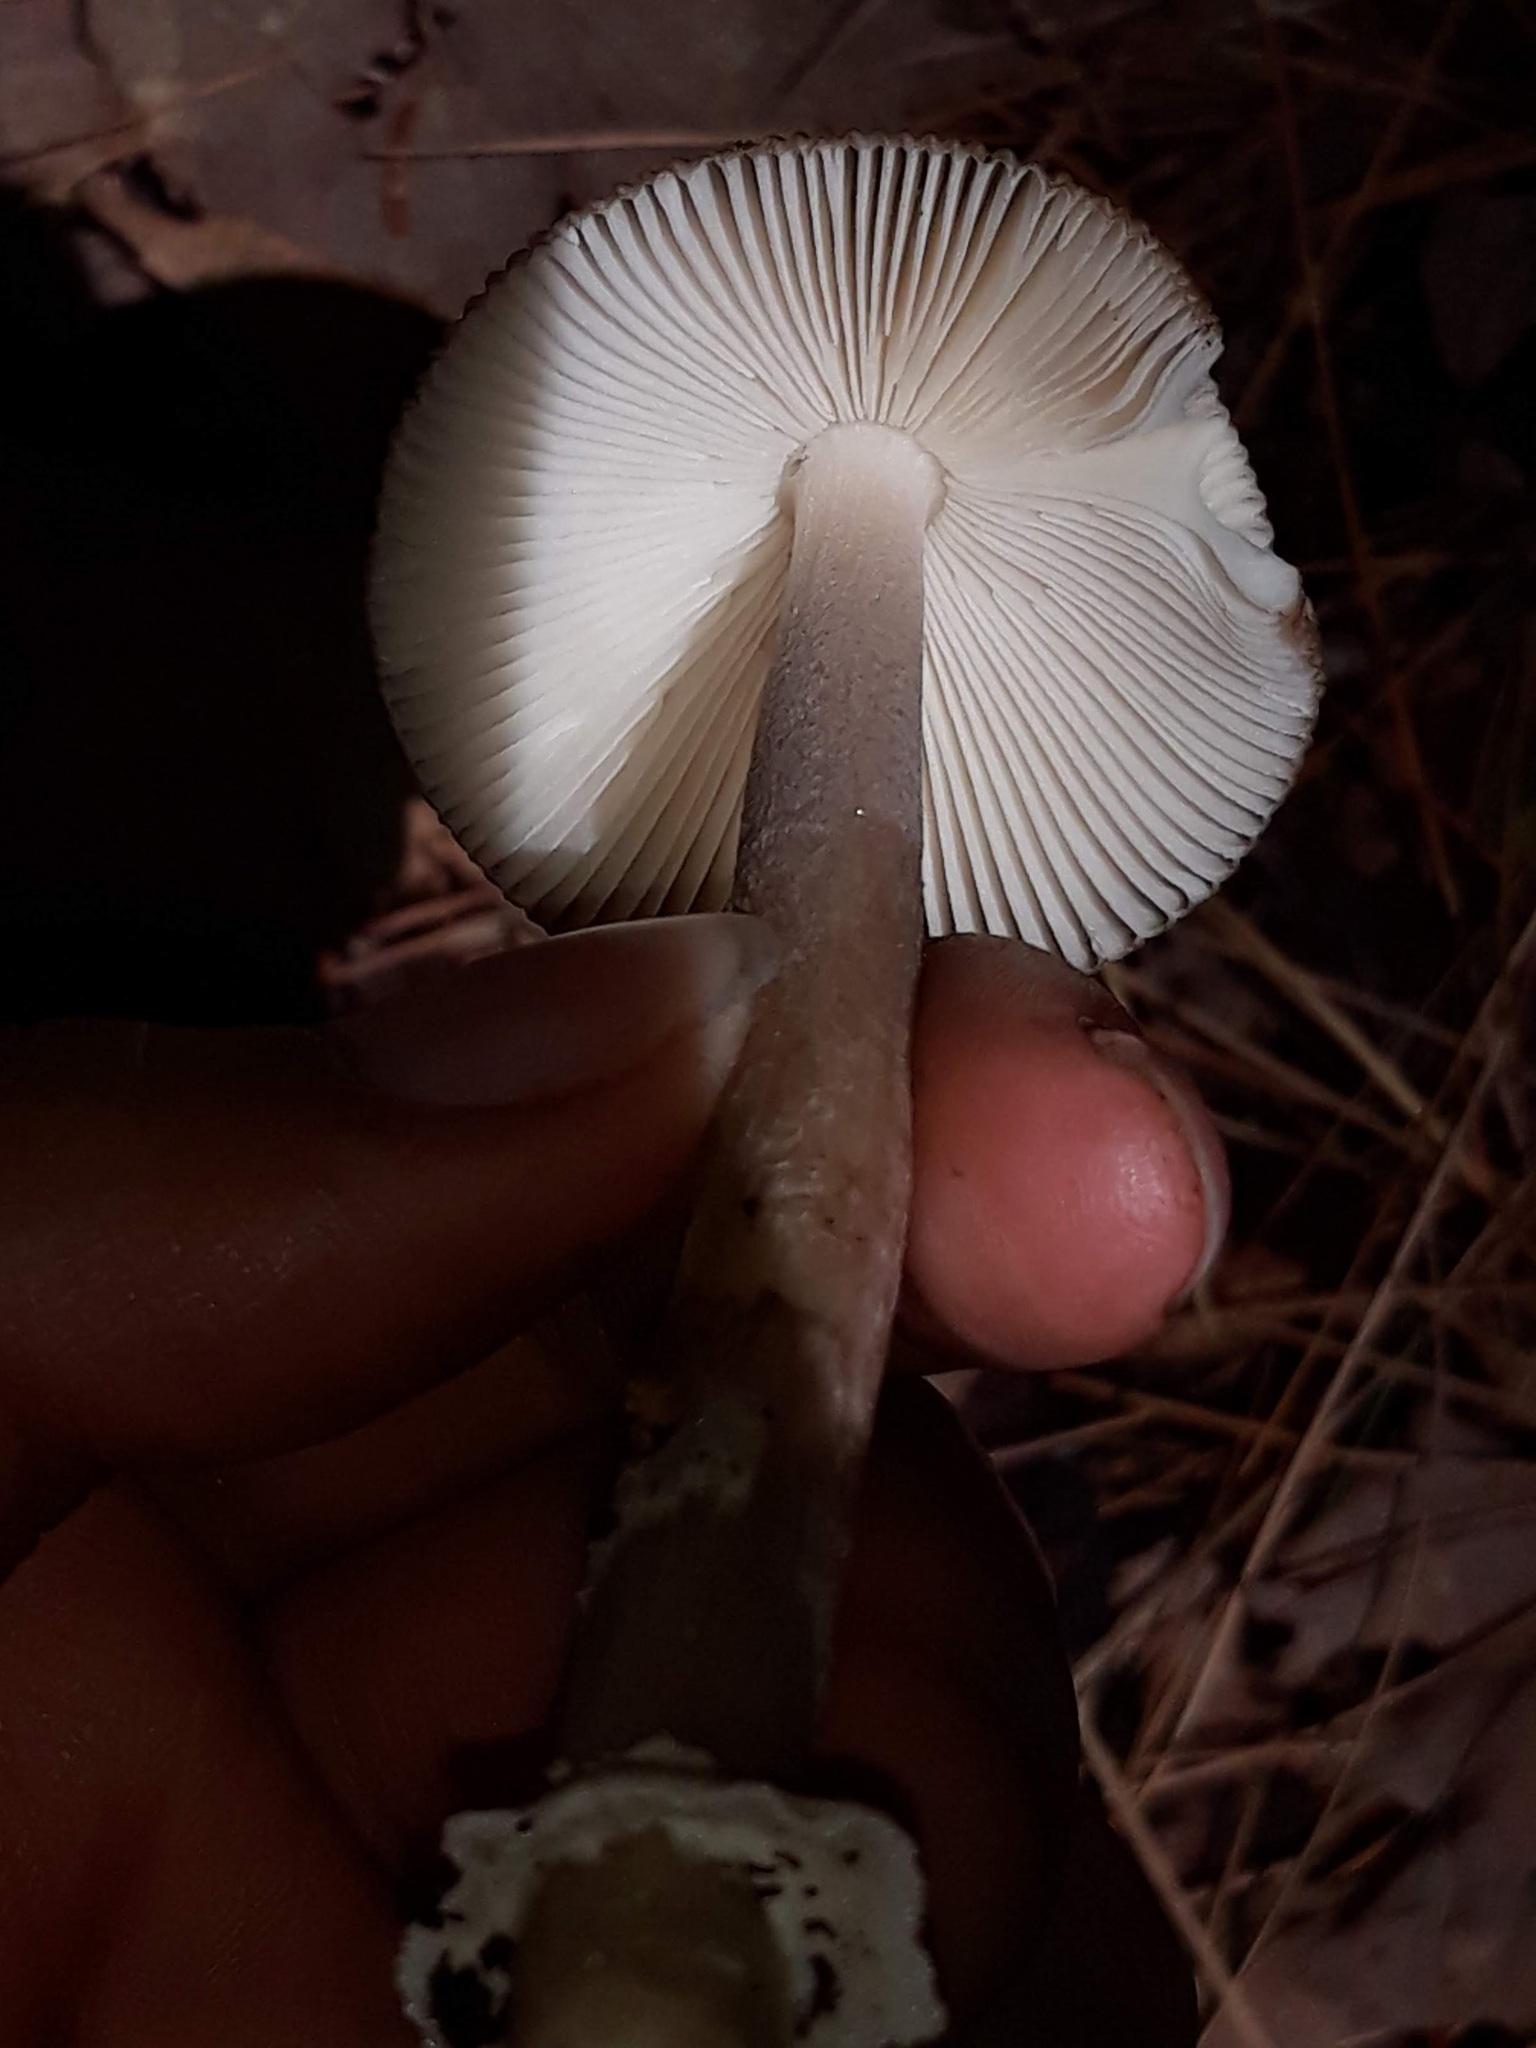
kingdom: Fungi
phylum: Basidiomycota
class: Agaricomycetes
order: Agaricales
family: Amanitaceae
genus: Amanita
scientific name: Amanita
